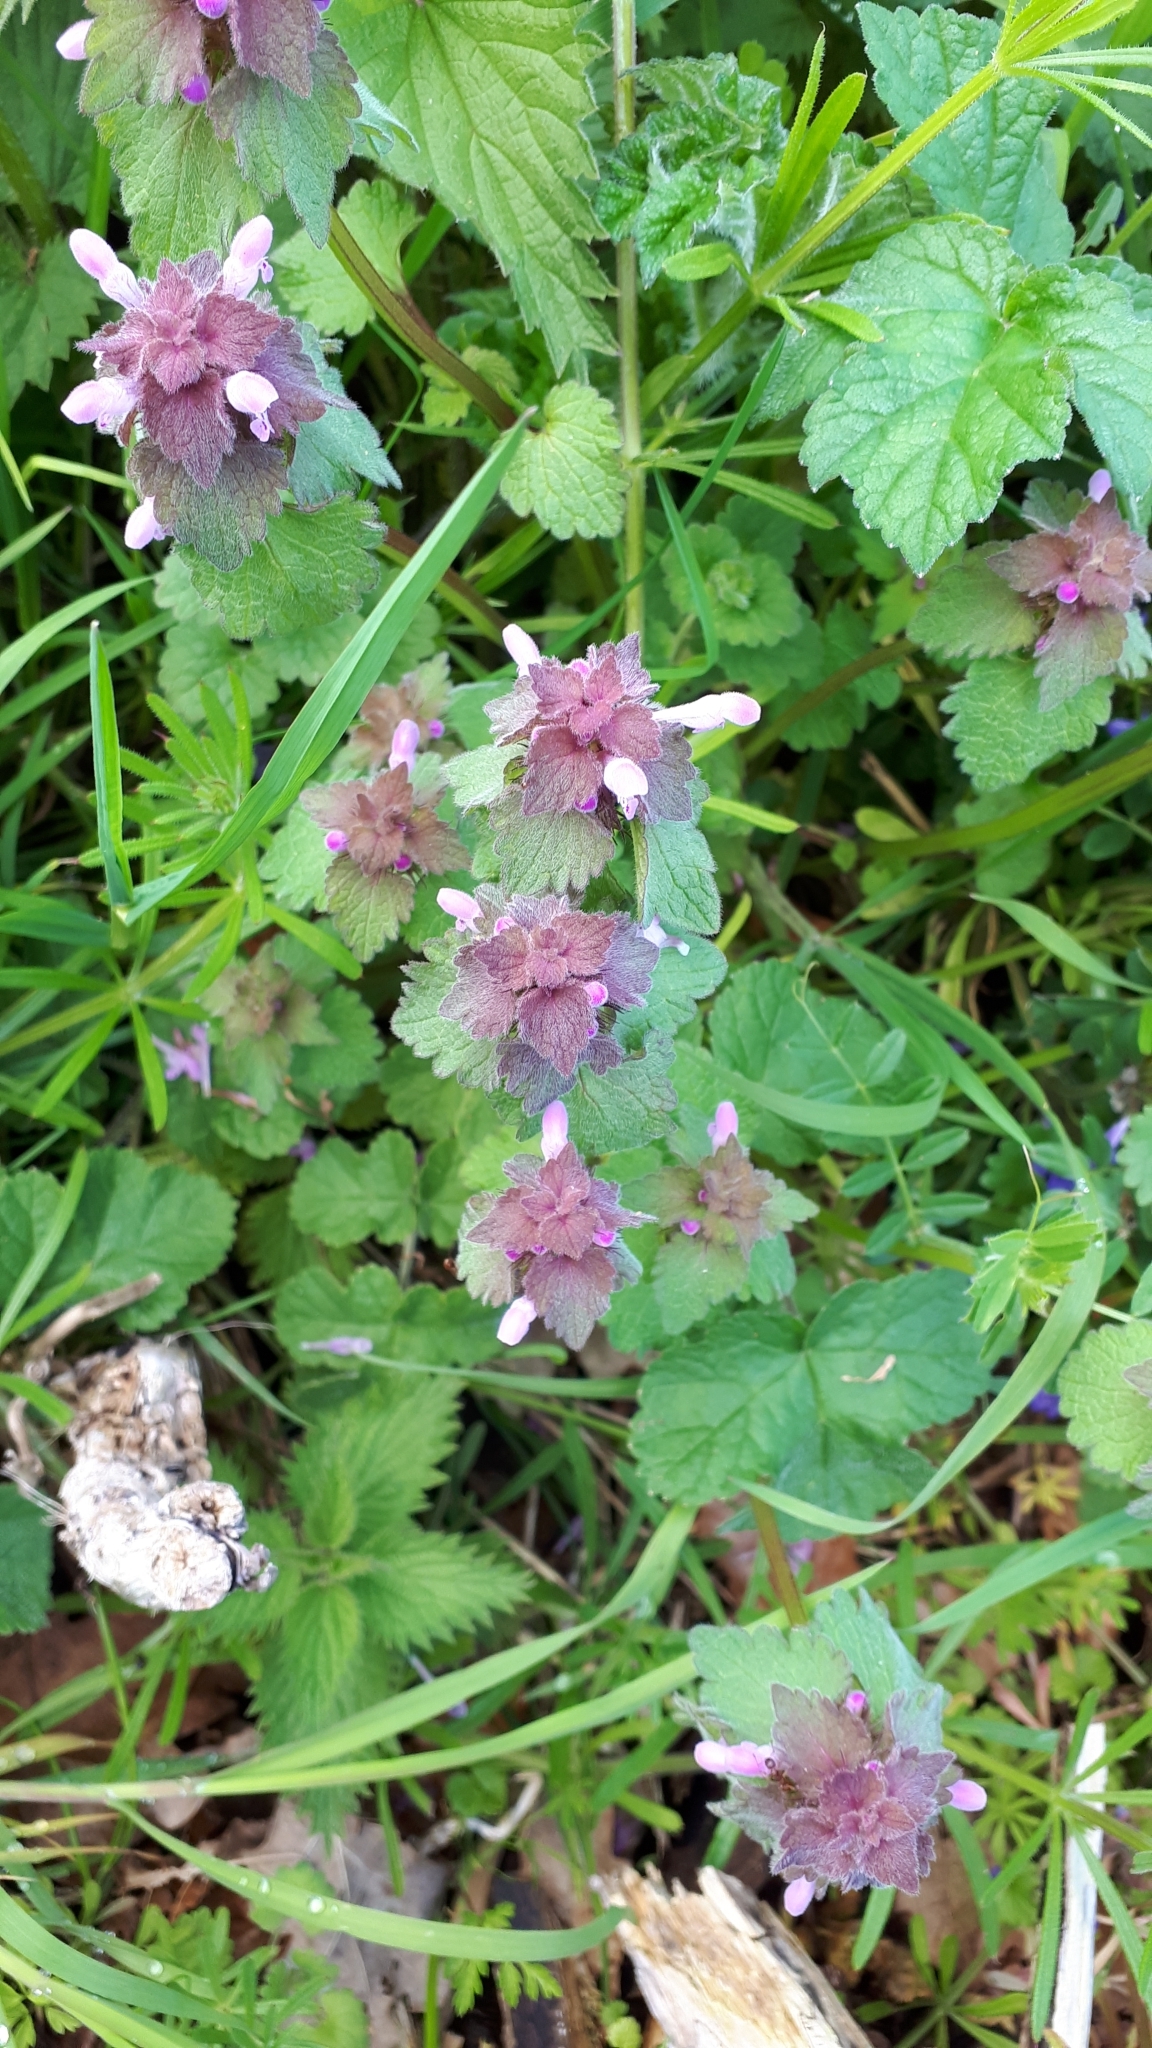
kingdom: Plantae
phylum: Tracheophyta
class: Magnoliopsida
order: Lamiales
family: Lamiaceae
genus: Lamium
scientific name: Lamium purpureum
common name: Red dead-nettle
